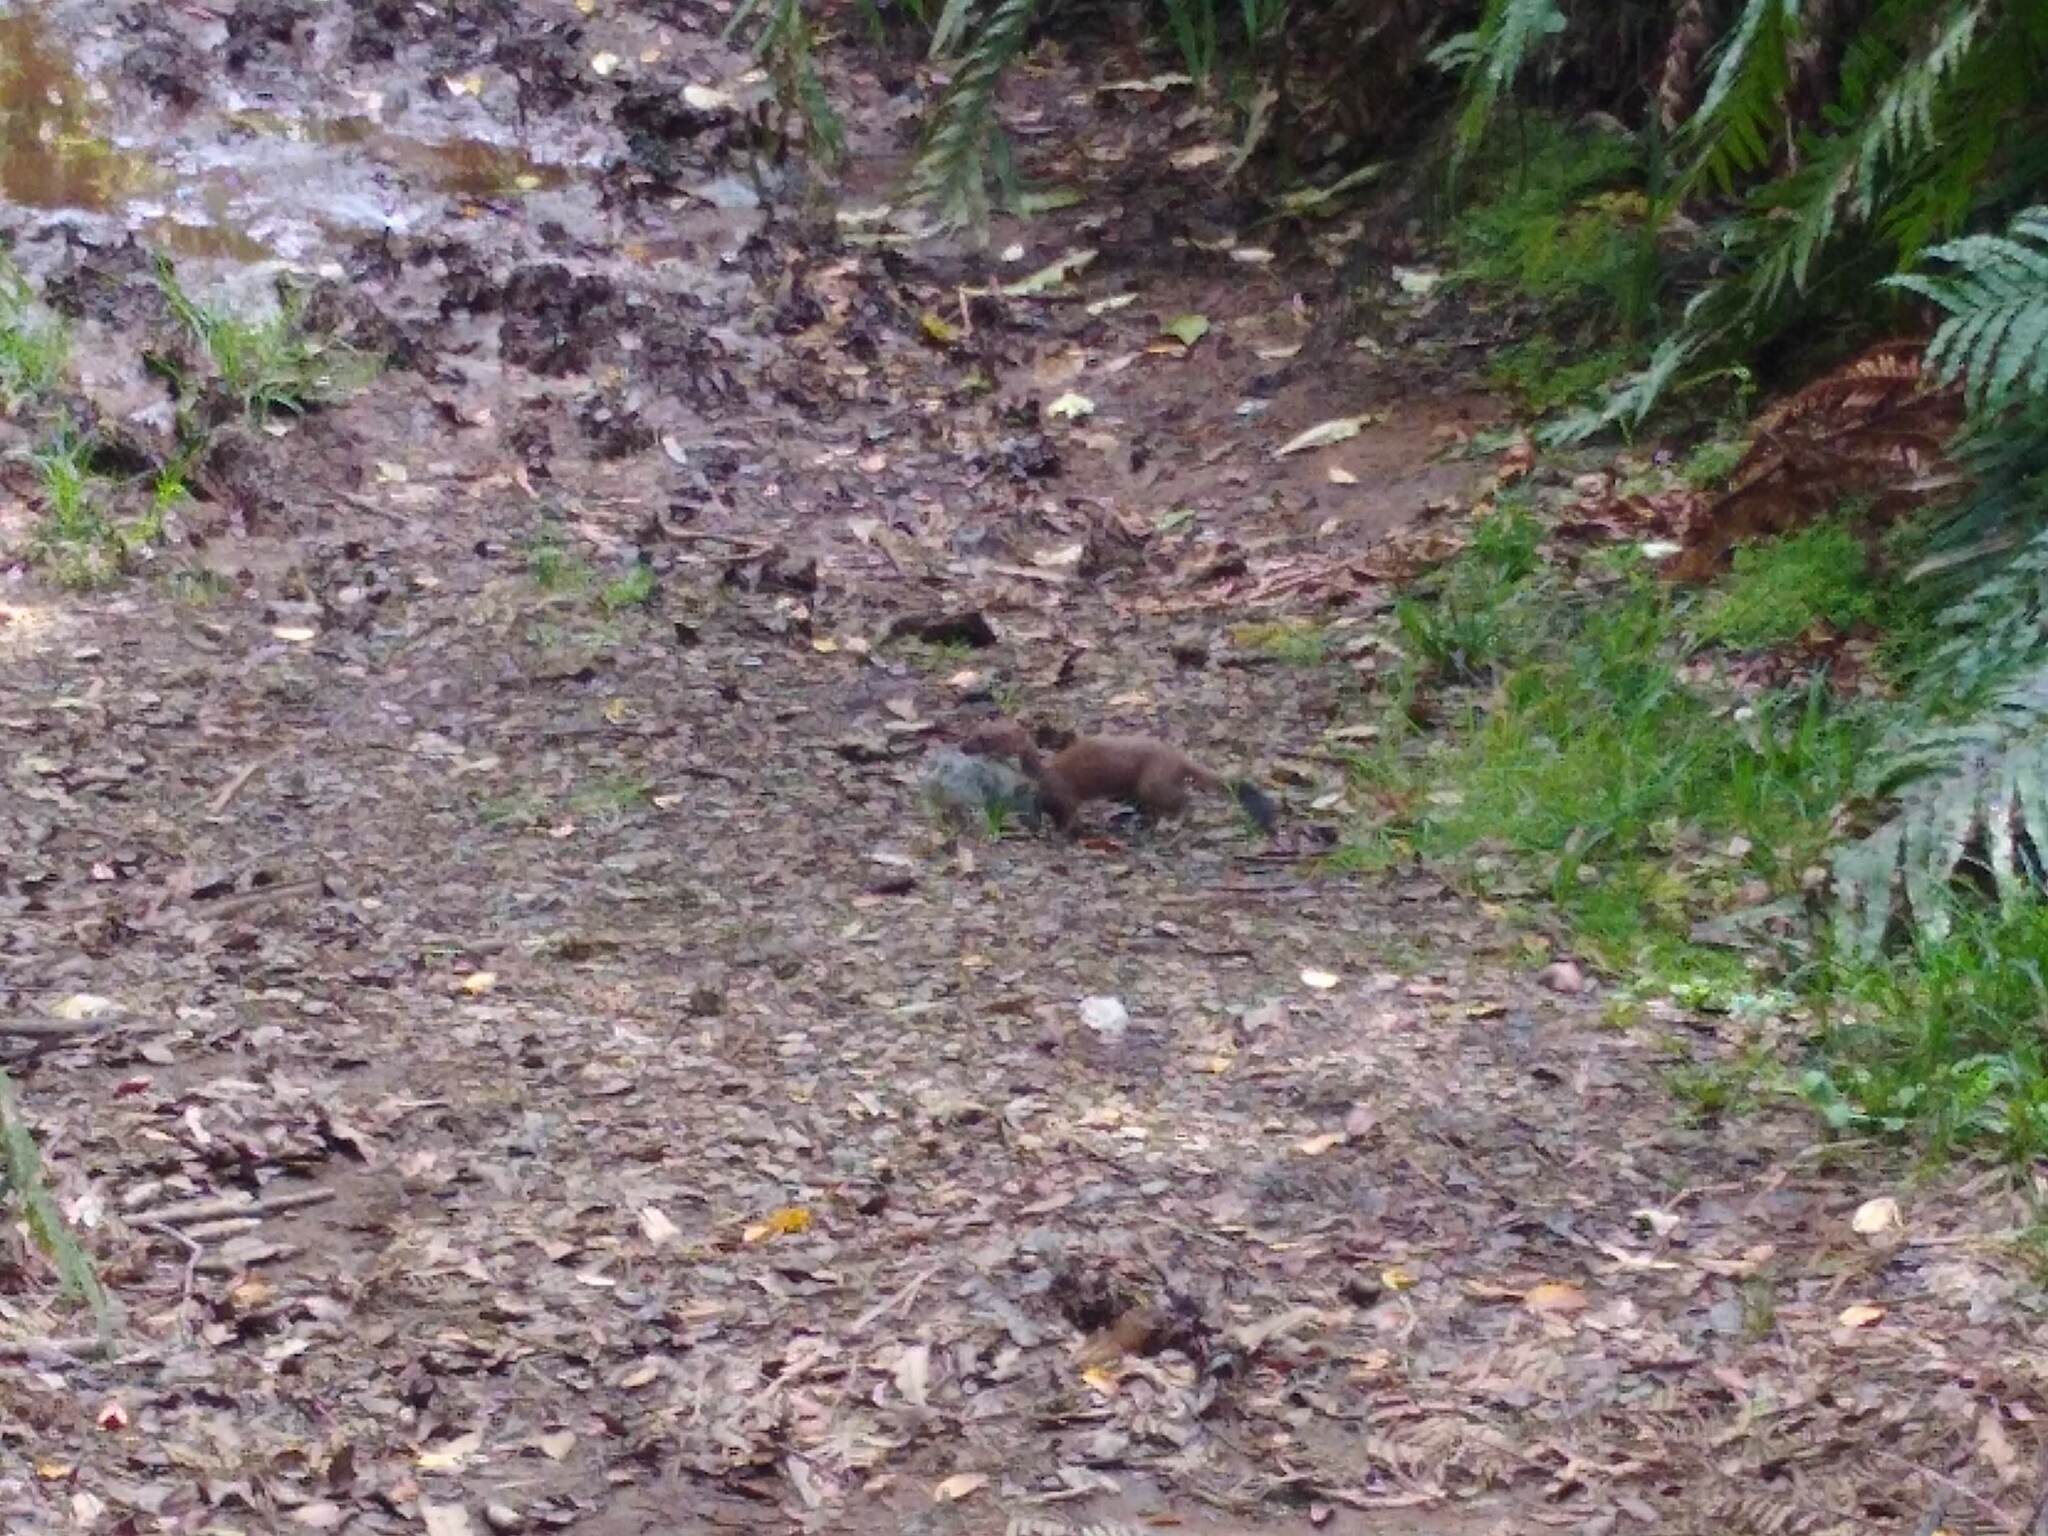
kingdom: Animalia
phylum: Chordata
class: Mammalia
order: Carnivora
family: Mustelidae
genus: Mustela
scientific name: Mustela erminea
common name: Stoat
